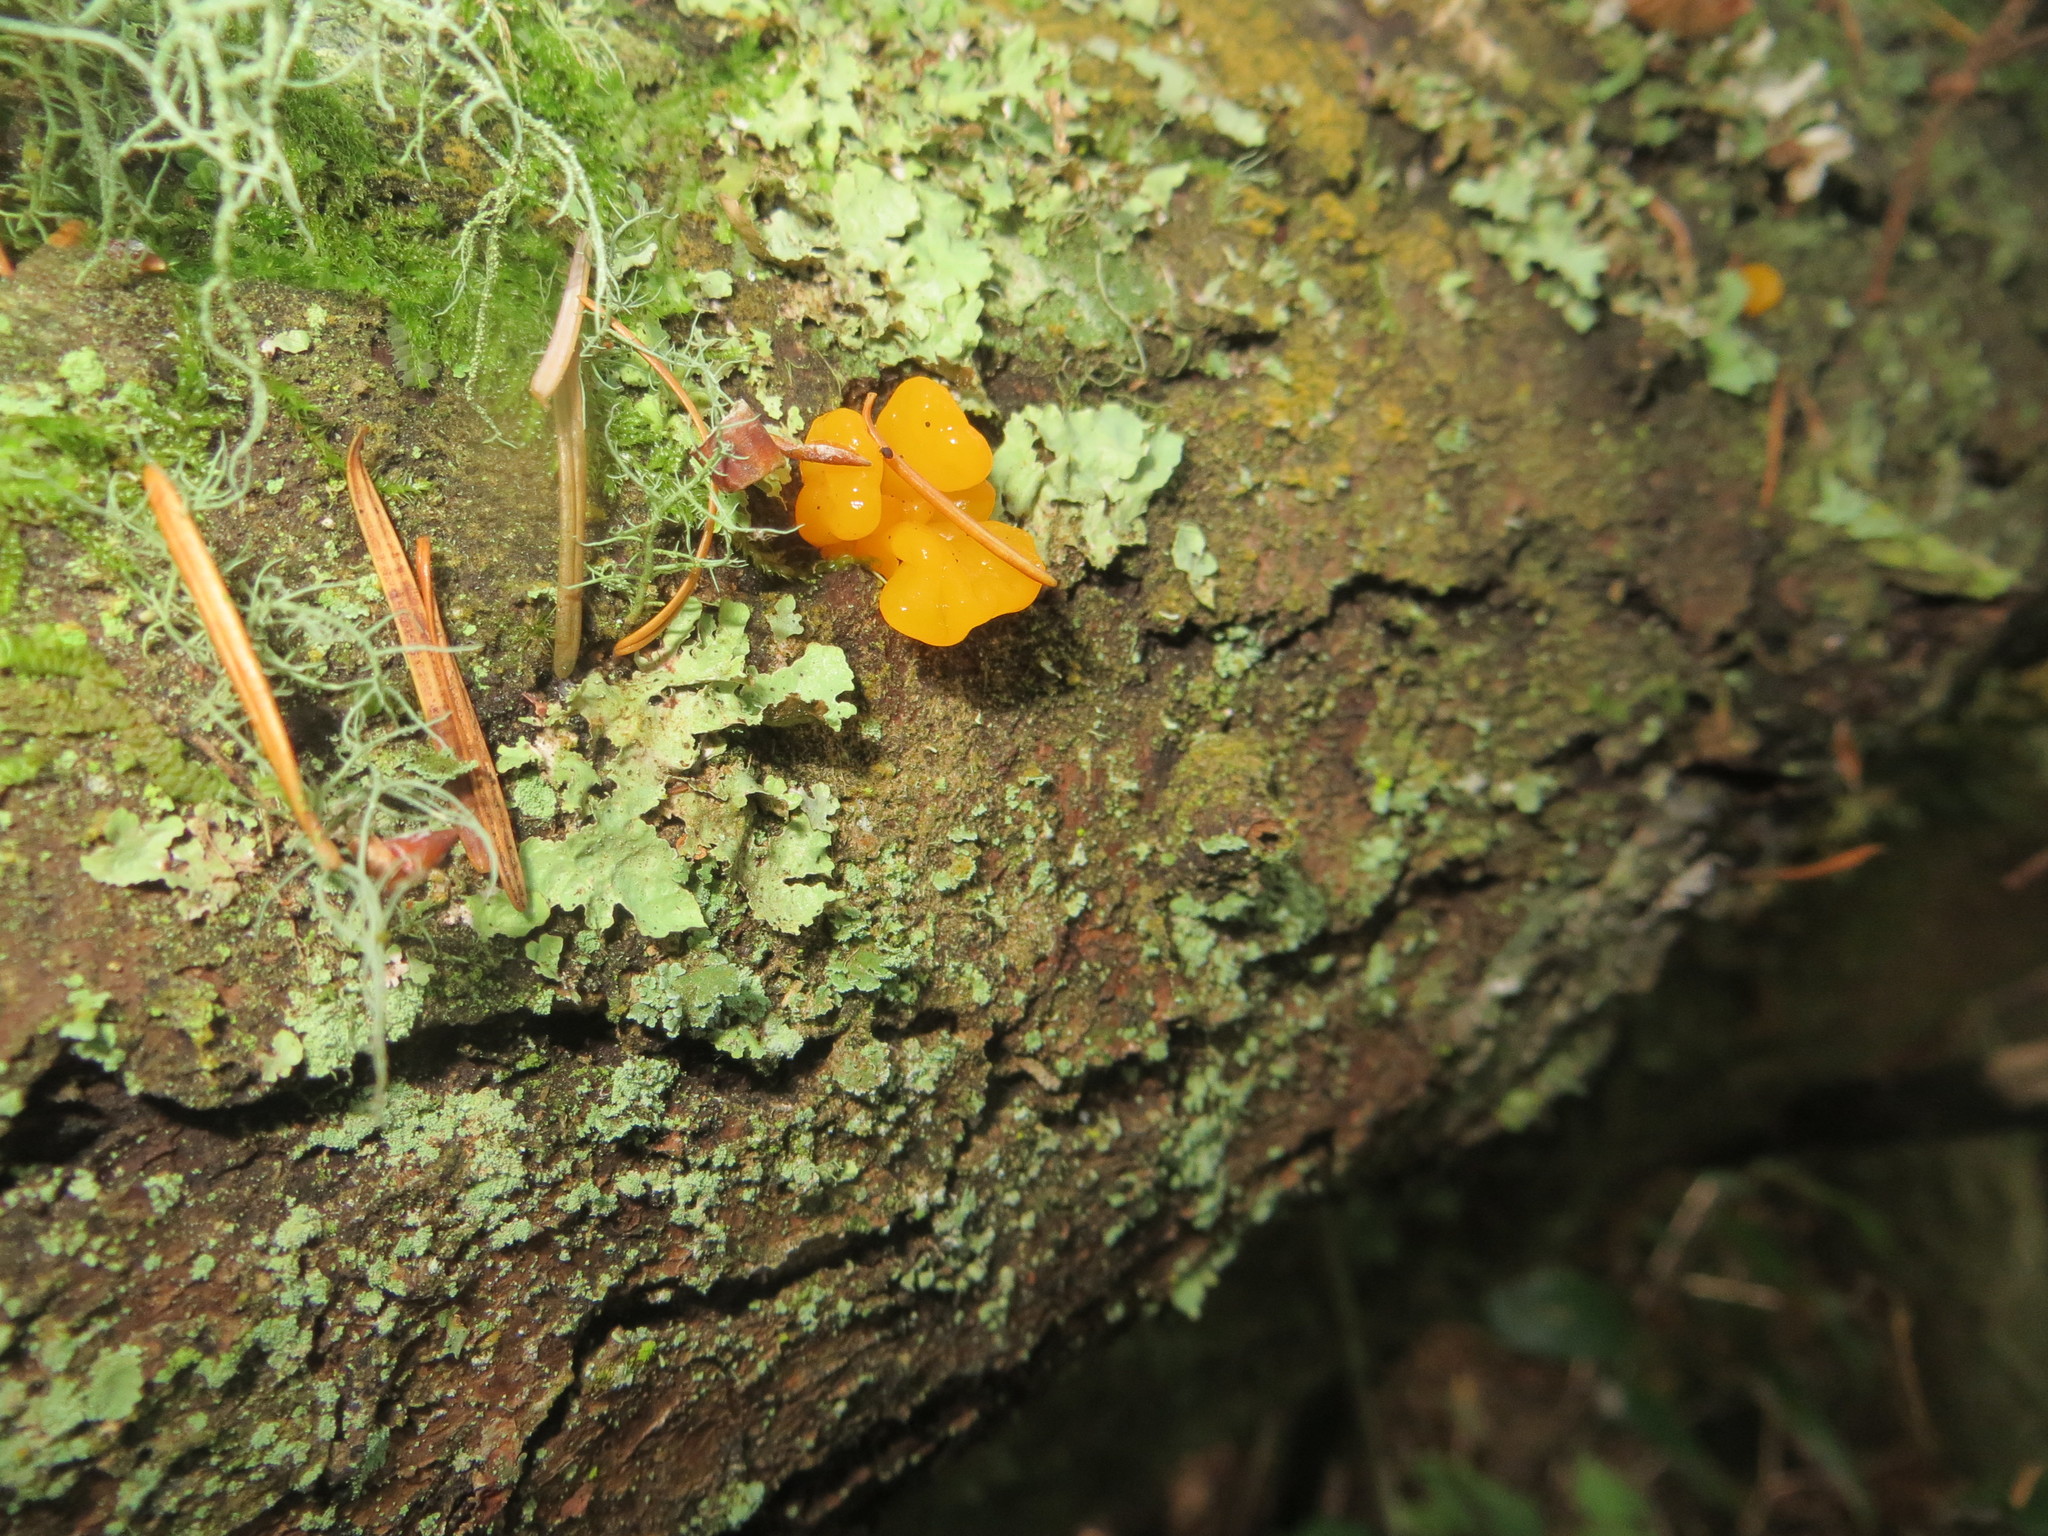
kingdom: Fungi
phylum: Basidiomycota
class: Dacrymycetes
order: Dacrymycetales
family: Dacrymycetaceae
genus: Dacrymyces
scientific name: Dacrymyces chrysospermus
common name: Orange jelly spot
